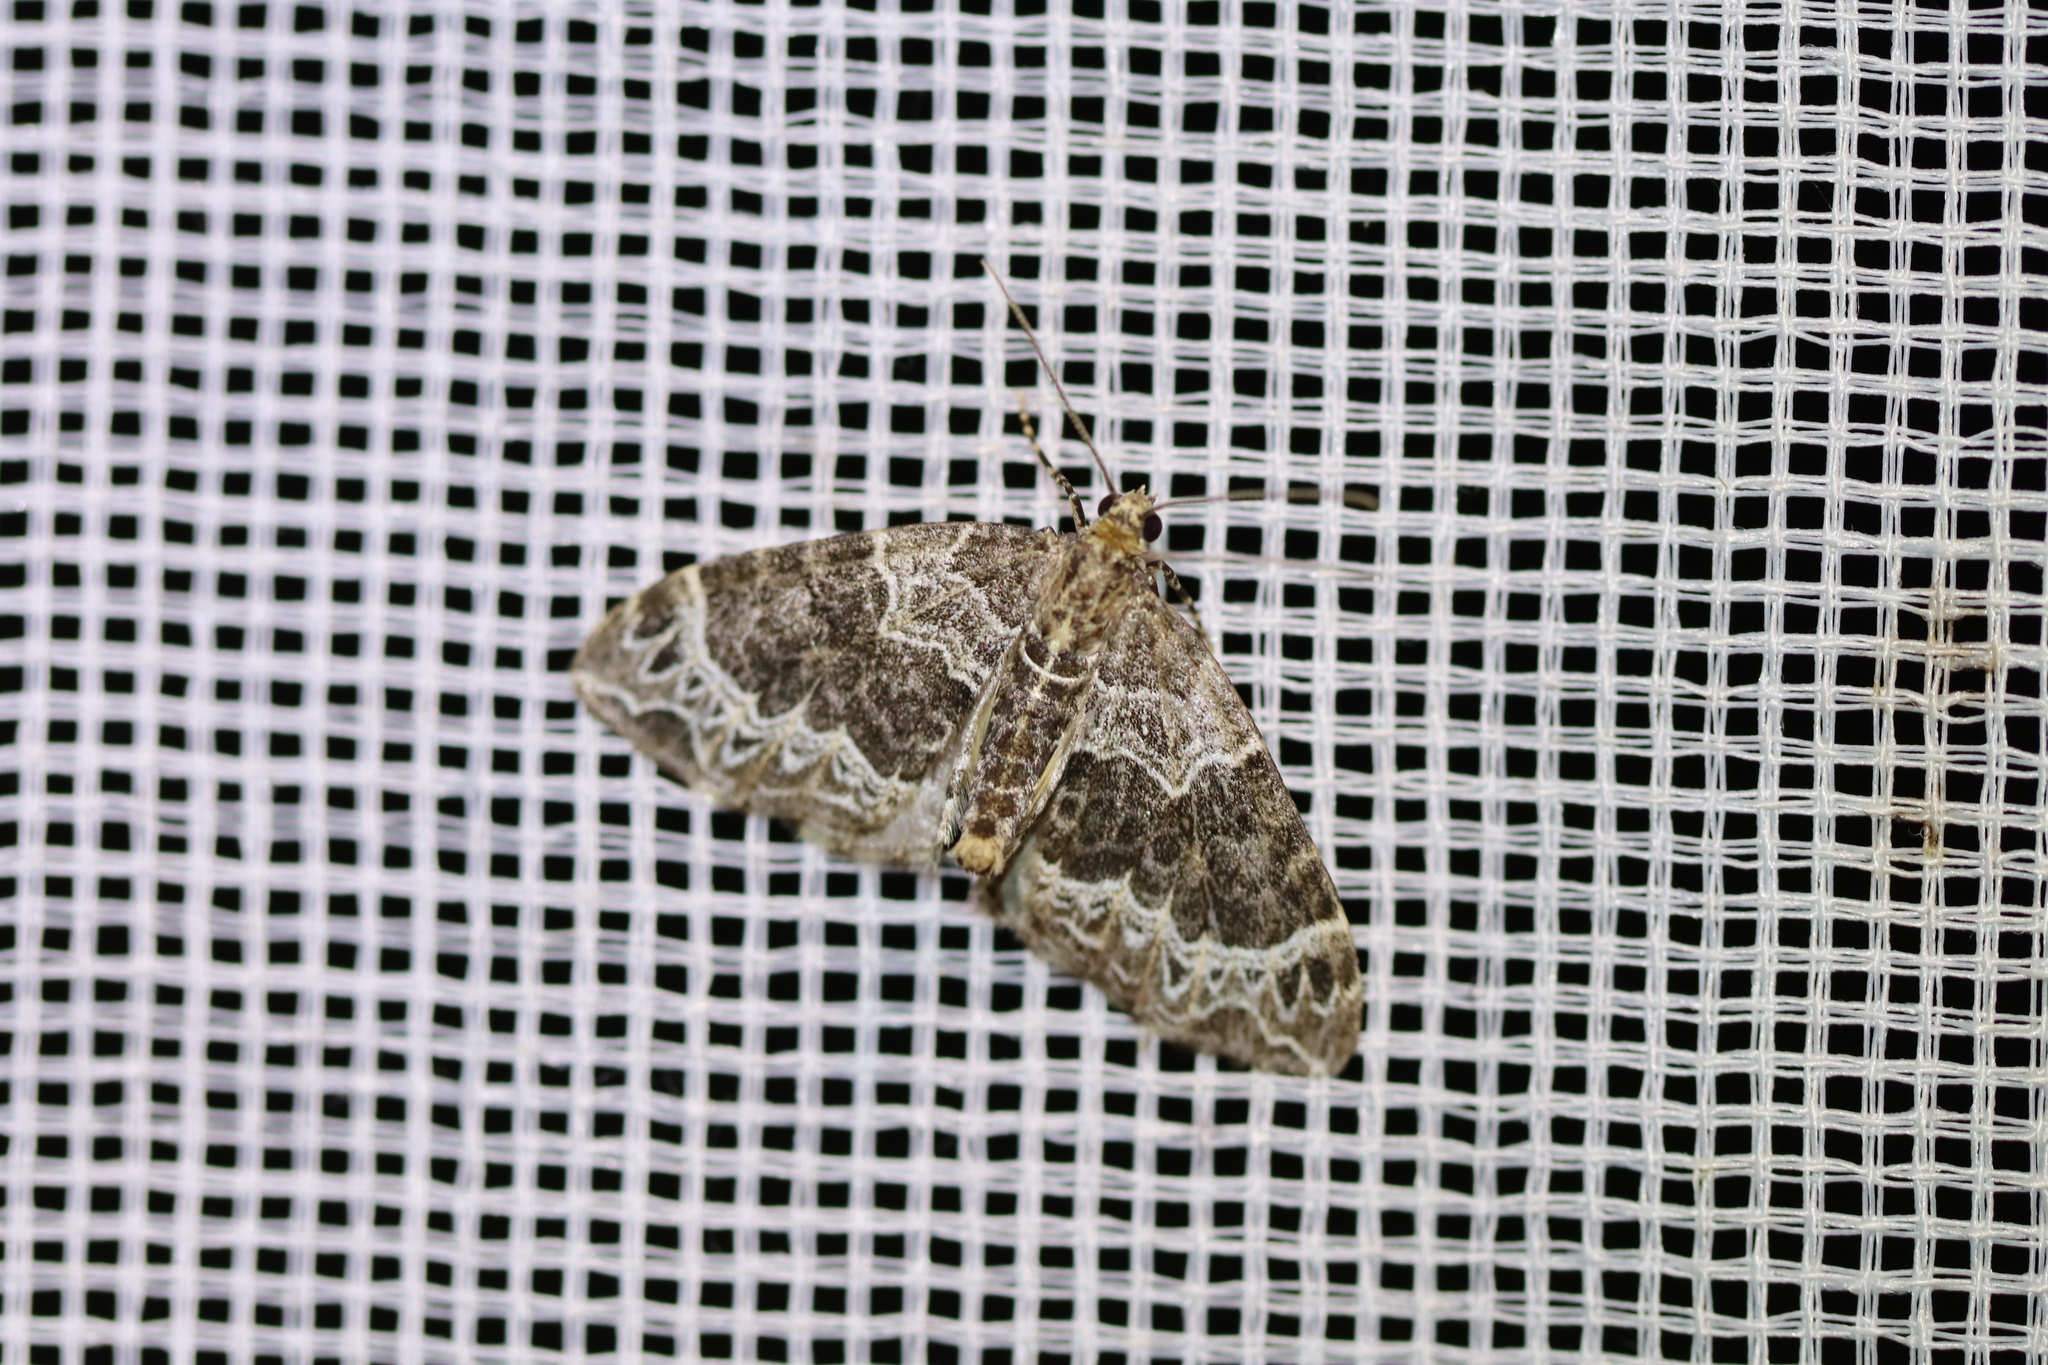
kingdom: Animalia
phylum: Arthropoda
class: Insecta
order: Lepidoptera
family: Geometridae
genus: Ecliptopera
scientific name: Ecliptopera silaceata
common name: Small phoenix
